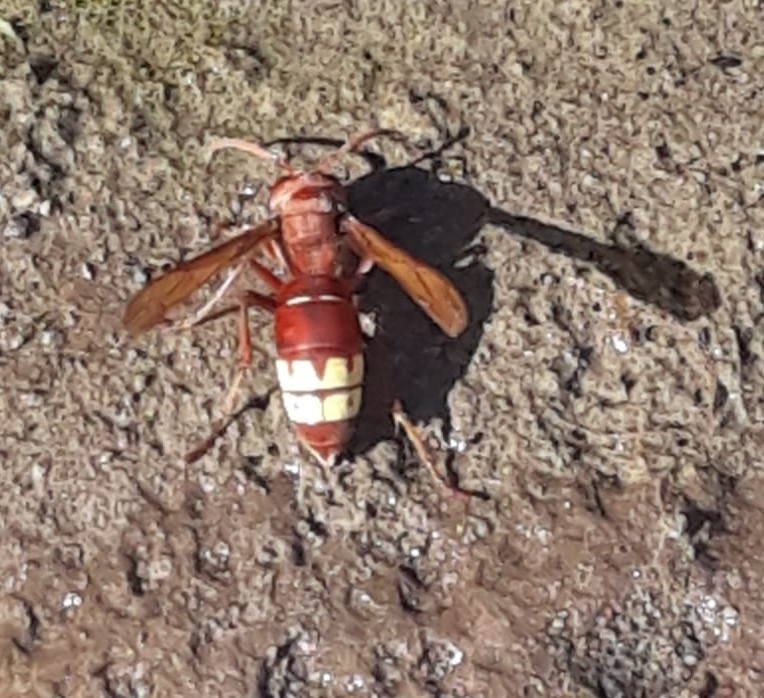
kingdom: Animalia
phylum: Arthropoda
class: Insecta
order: Hymenoptera
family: Vespidae
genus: Vespa
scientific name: Vespa orientalis
